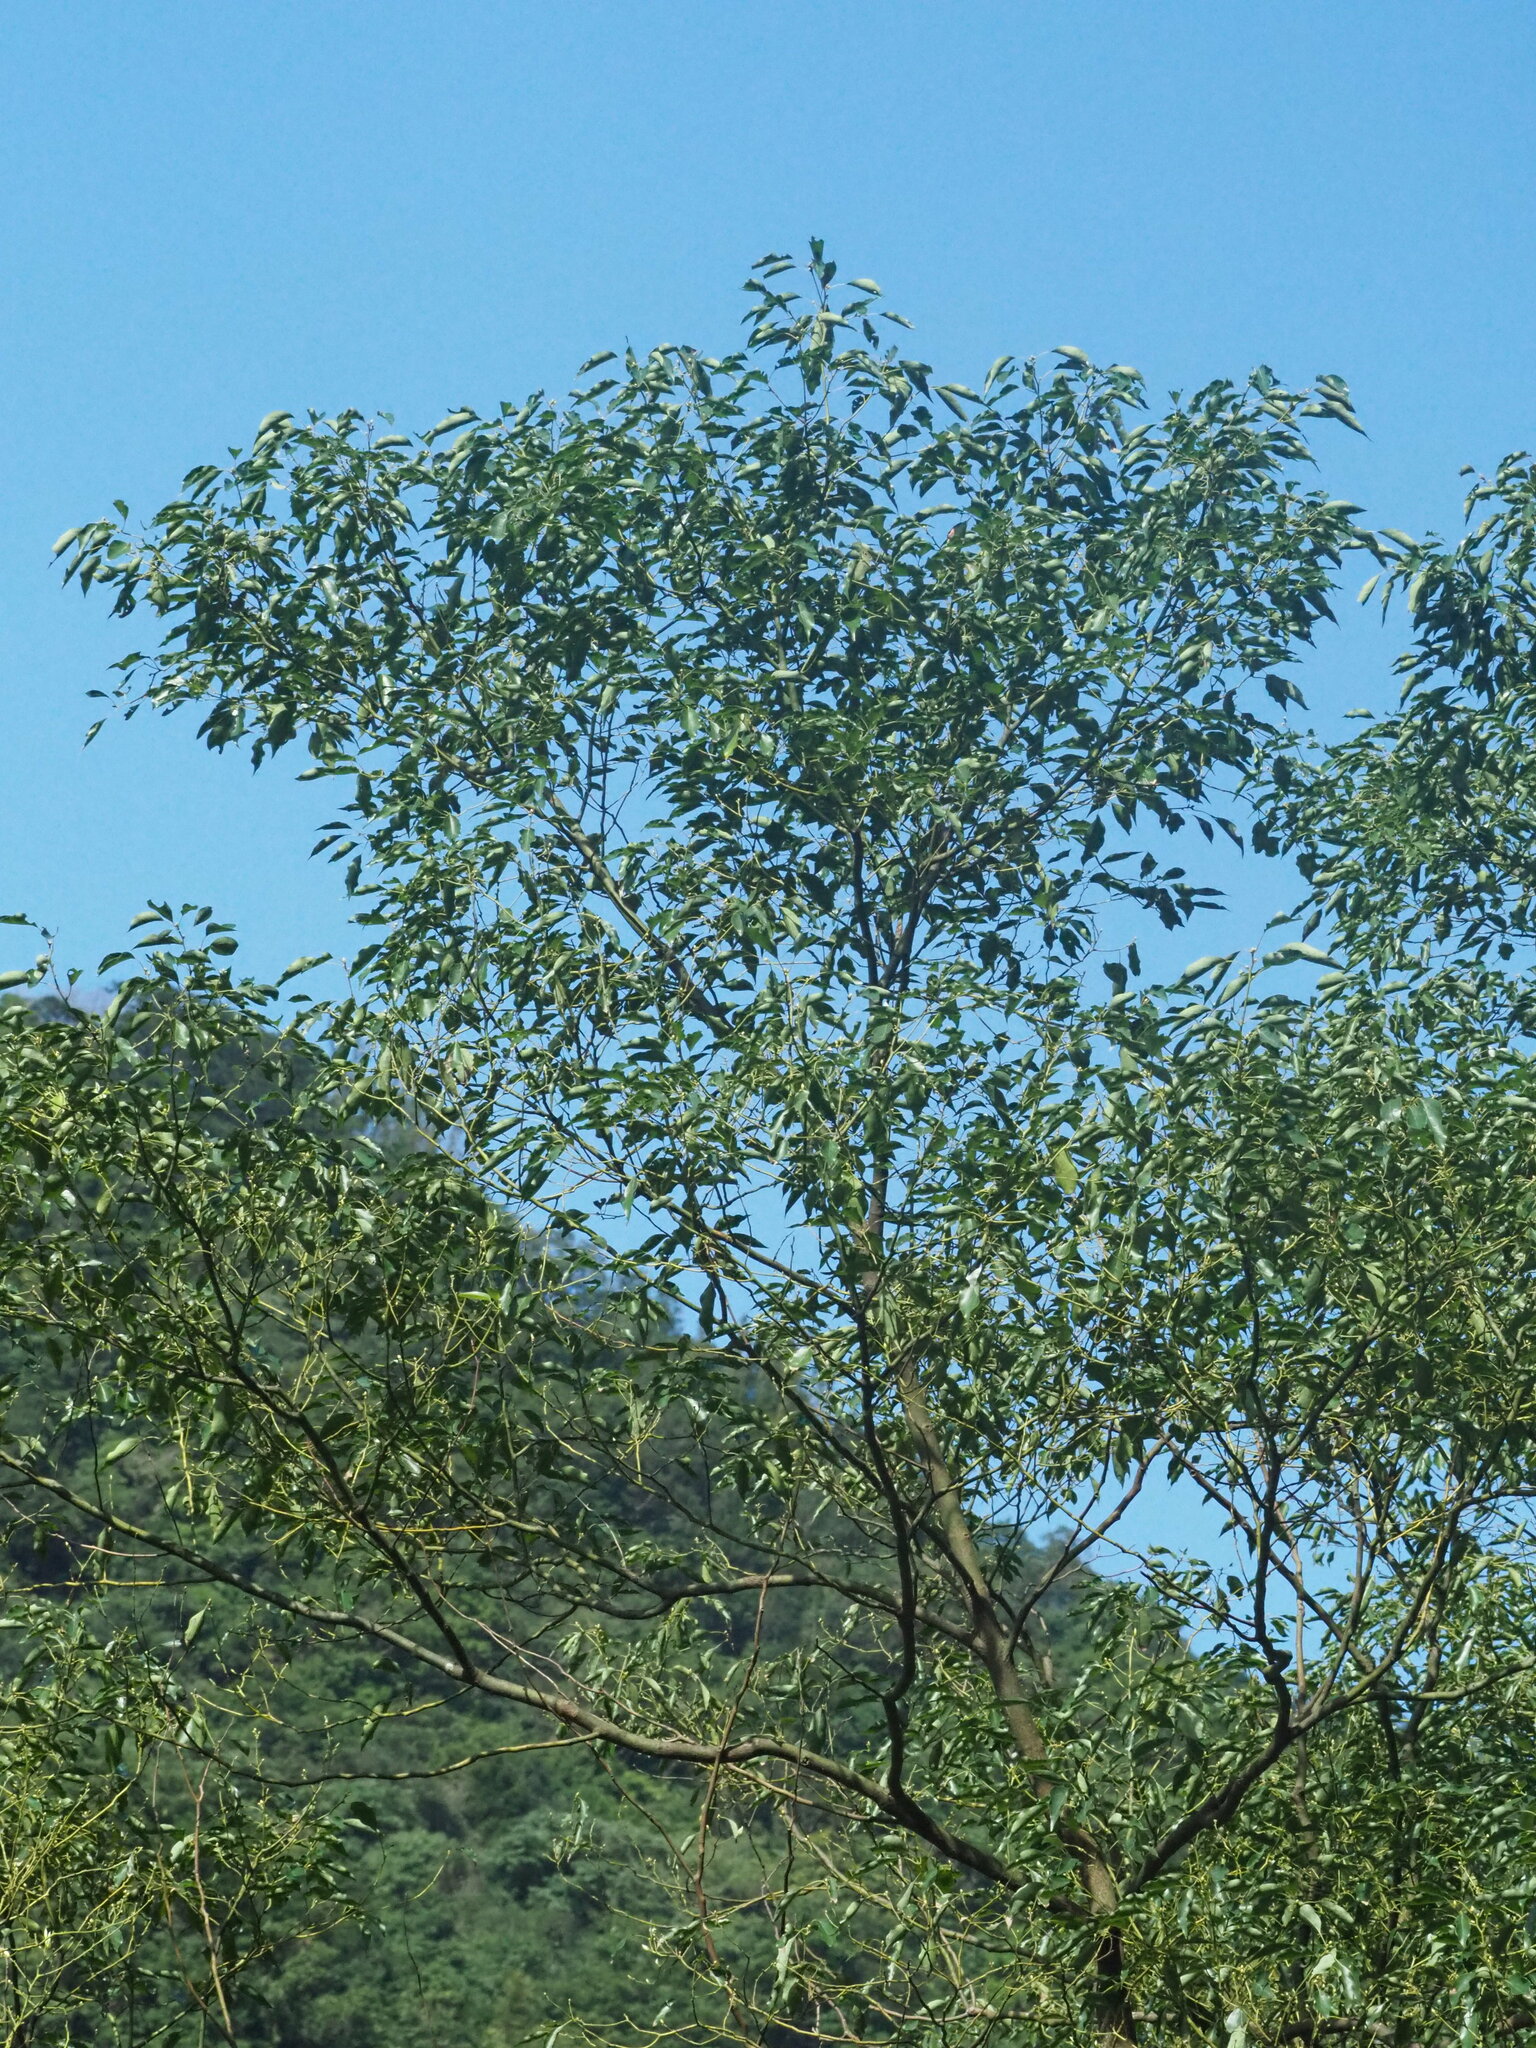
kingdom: Plantae
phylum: Tracheophyta
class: Magnoliopsida
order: Laurales
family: Lauraceae
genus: Cinnamomum
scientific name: Cinnamomum camphora
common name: Camphortree
